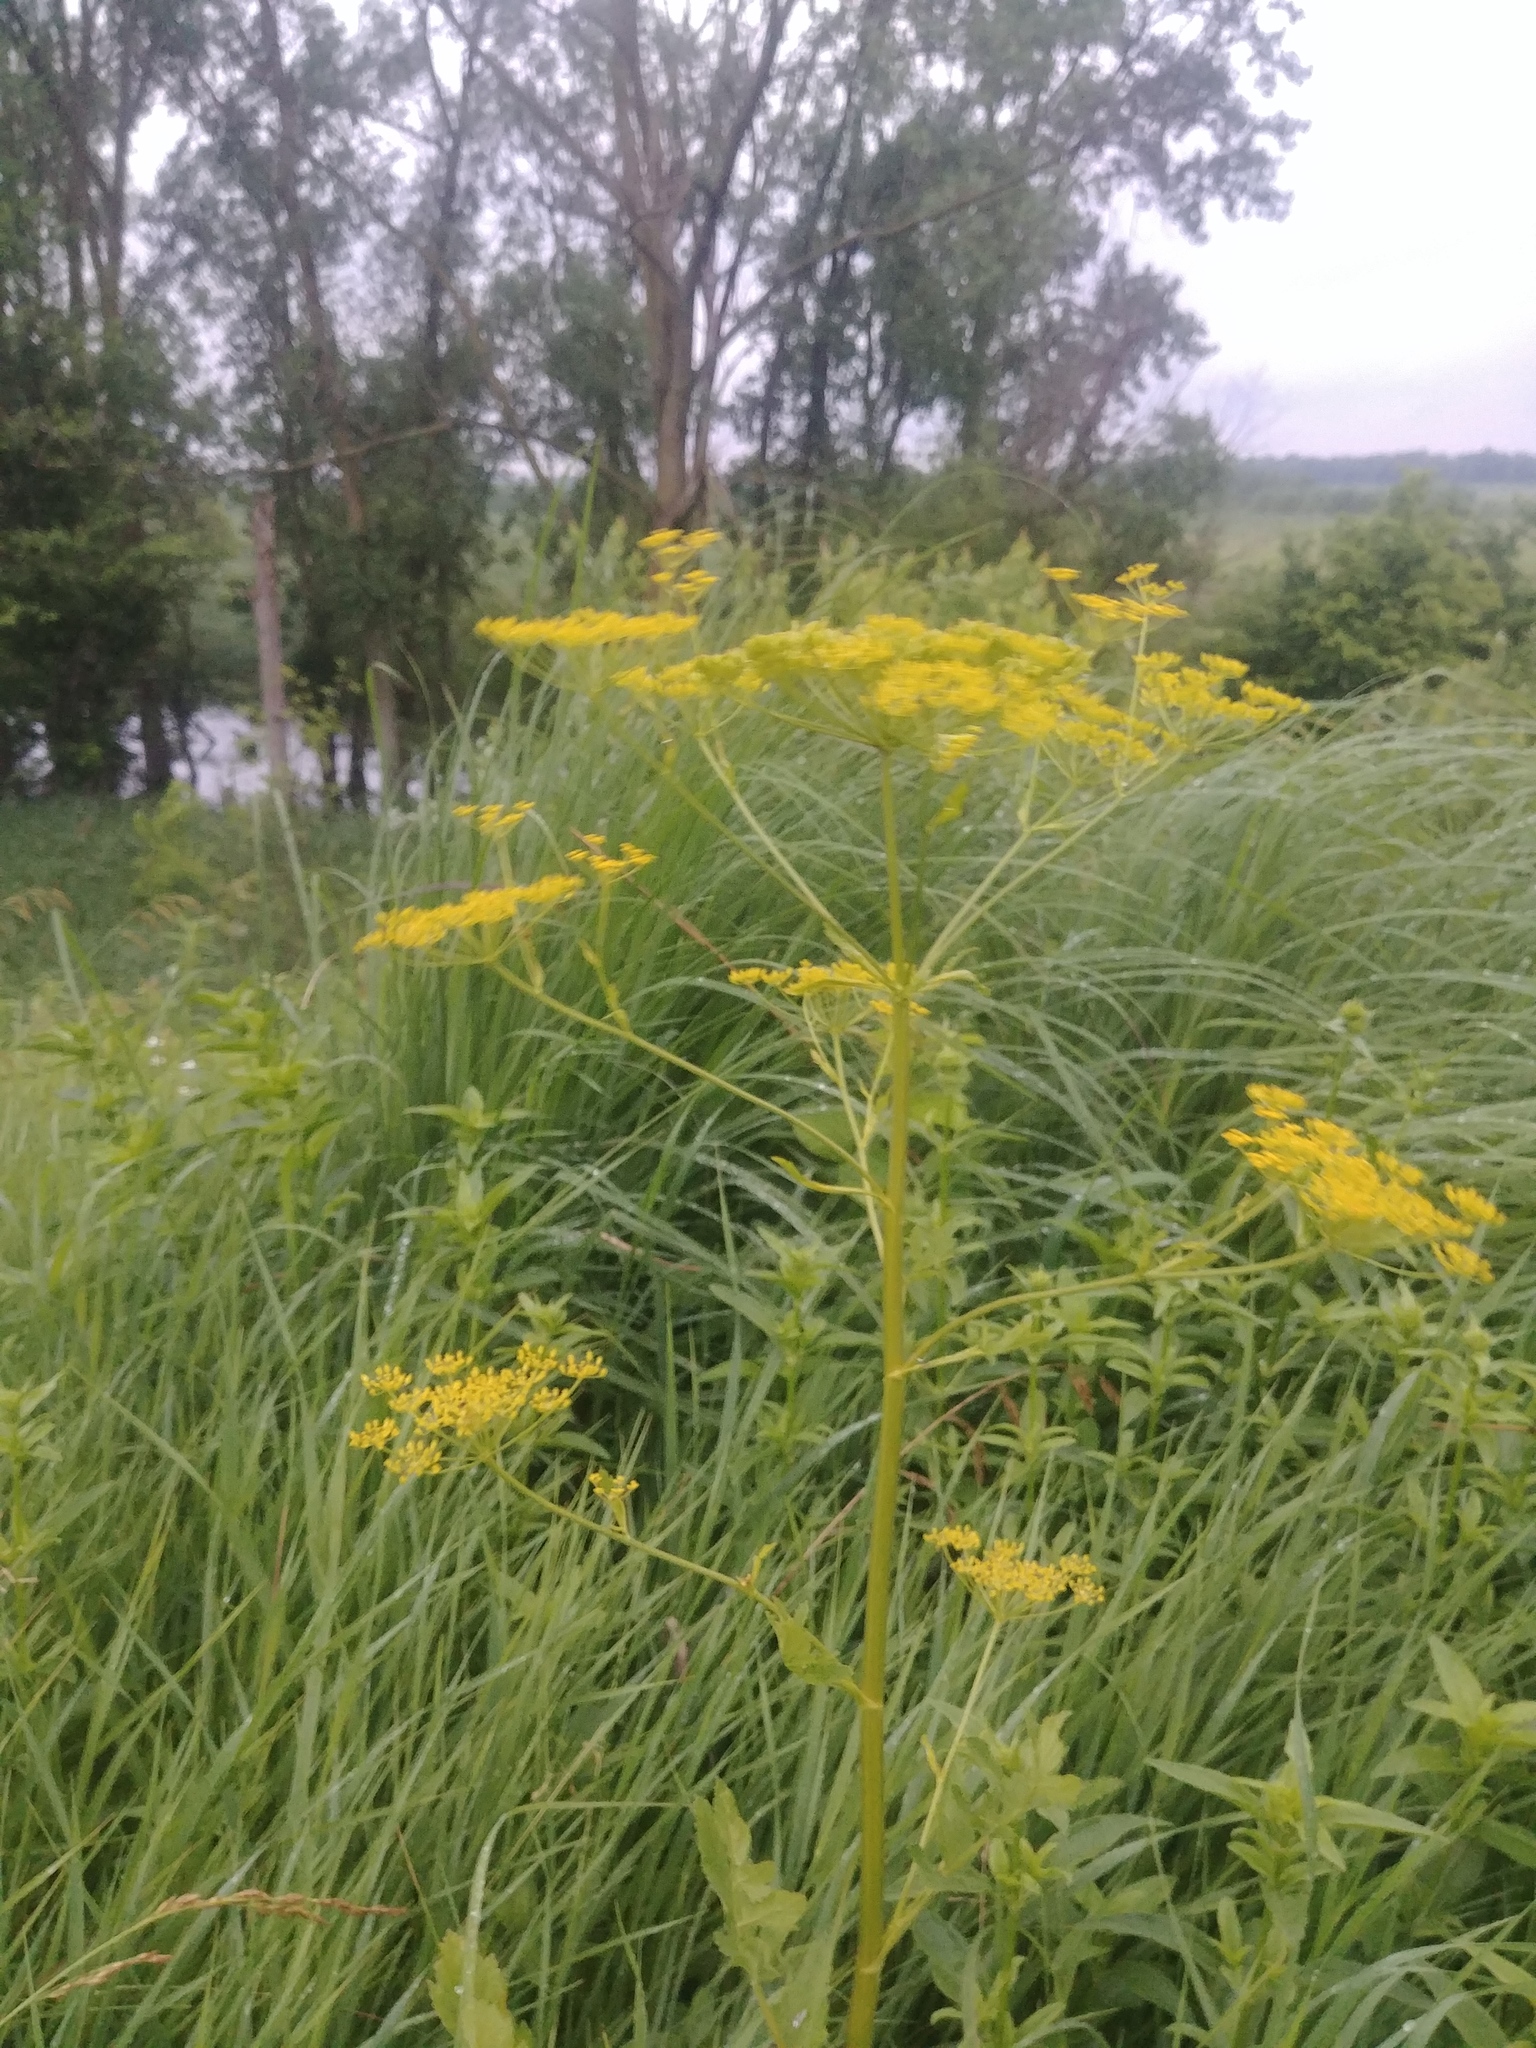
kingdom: Plantae
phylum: Tracheophyta
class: Magnoliopsida
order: Apiales
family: Apiaceae
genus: Pastinaca
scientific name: Pastinaca sativa
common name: Wild parsnip
